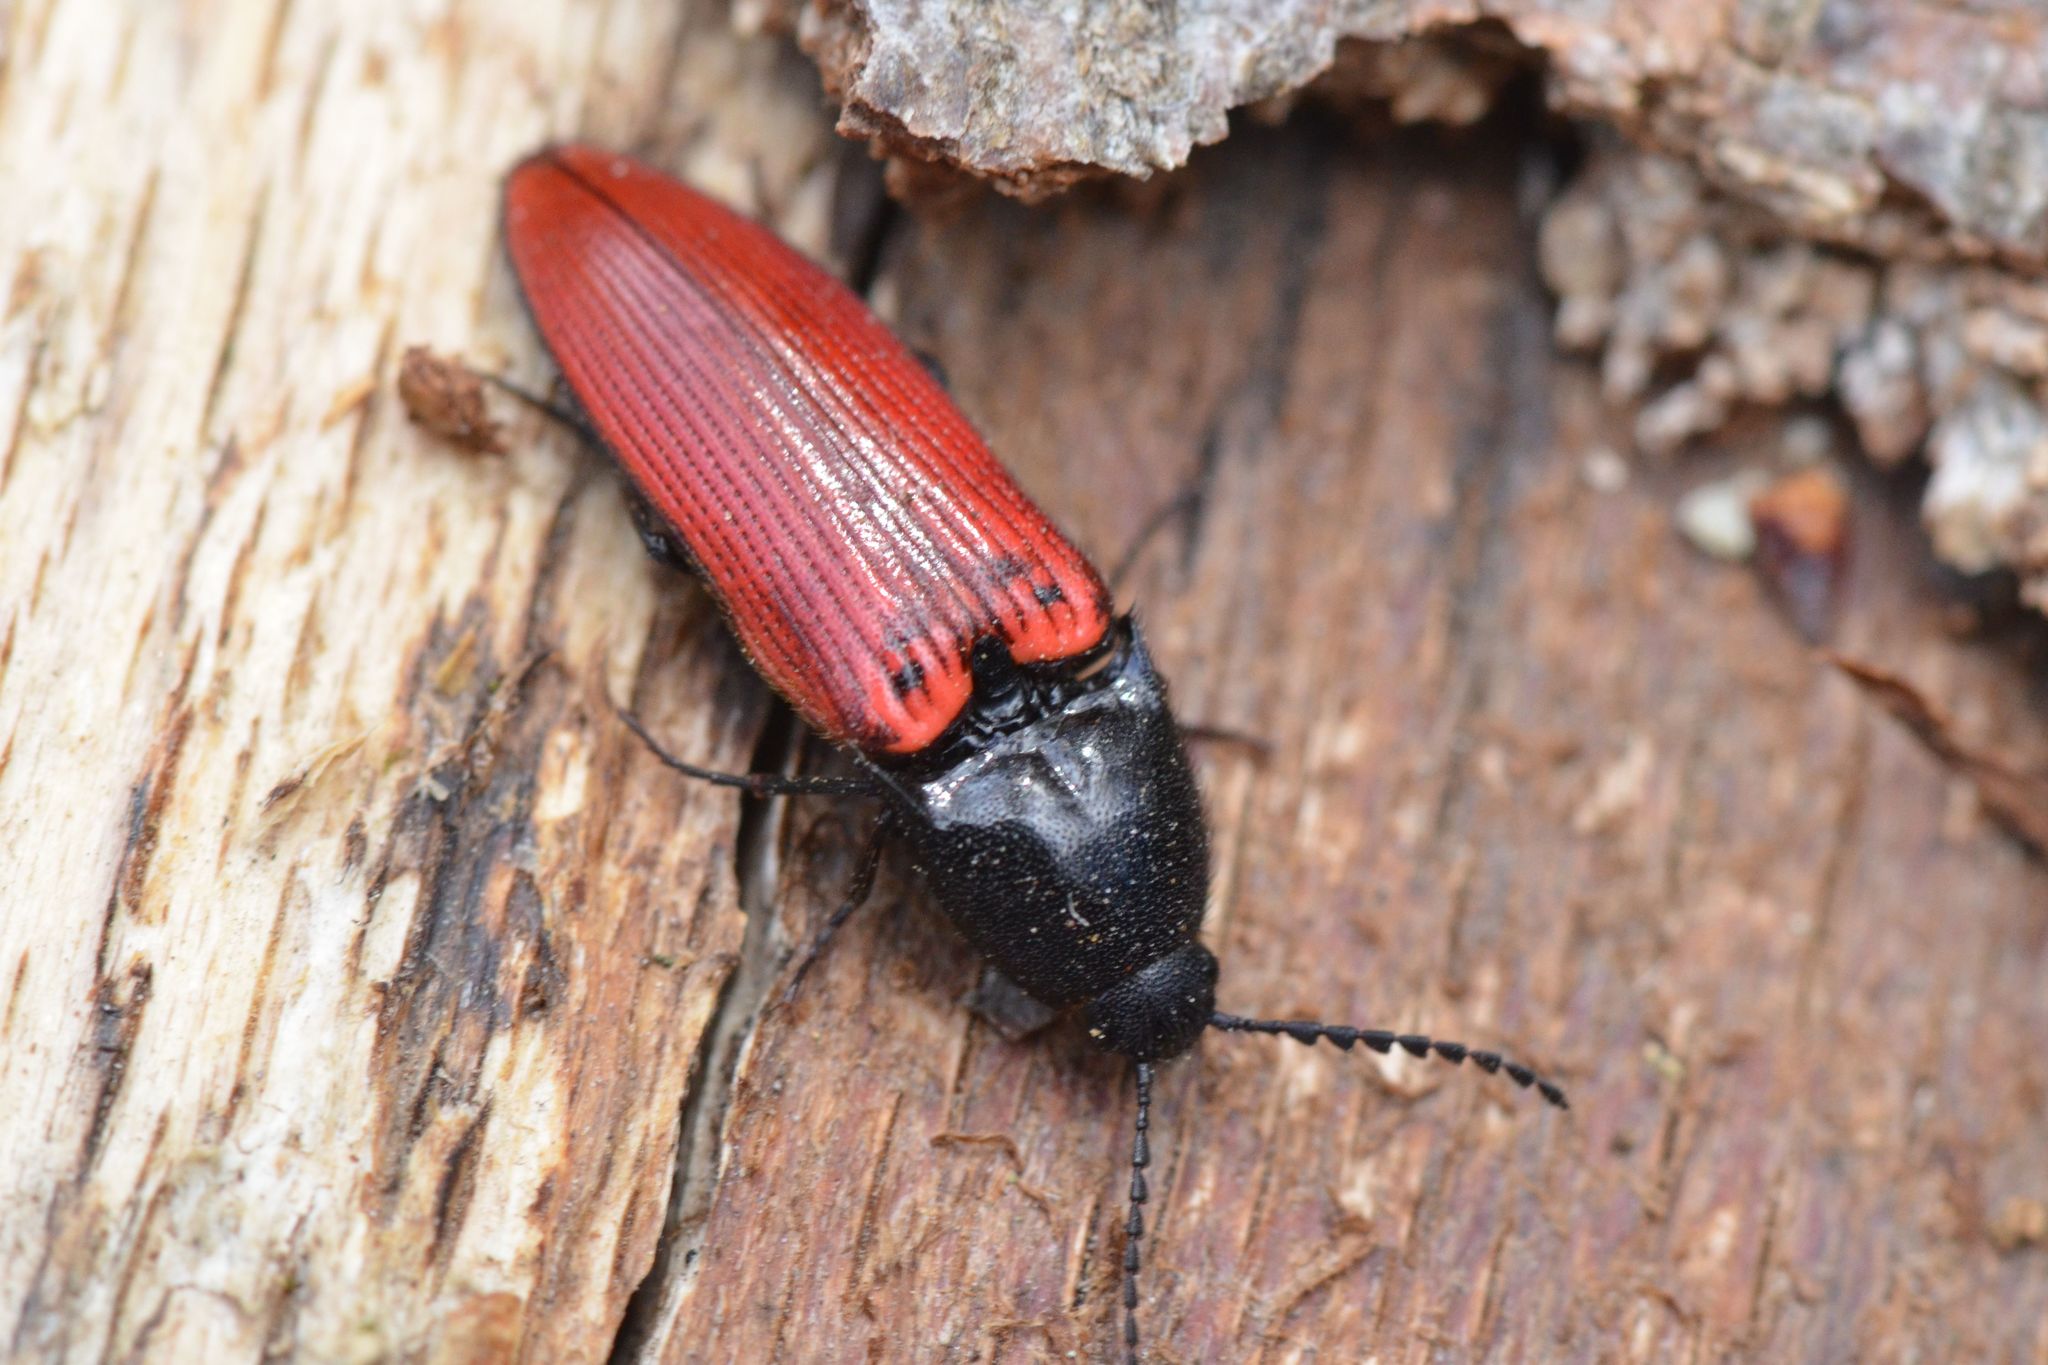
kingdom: Animalia
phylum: Arthropoda
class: Insecta
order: Coleoptera
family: Elateridae
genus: Ampedus
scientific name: Ampedus sanguineus
